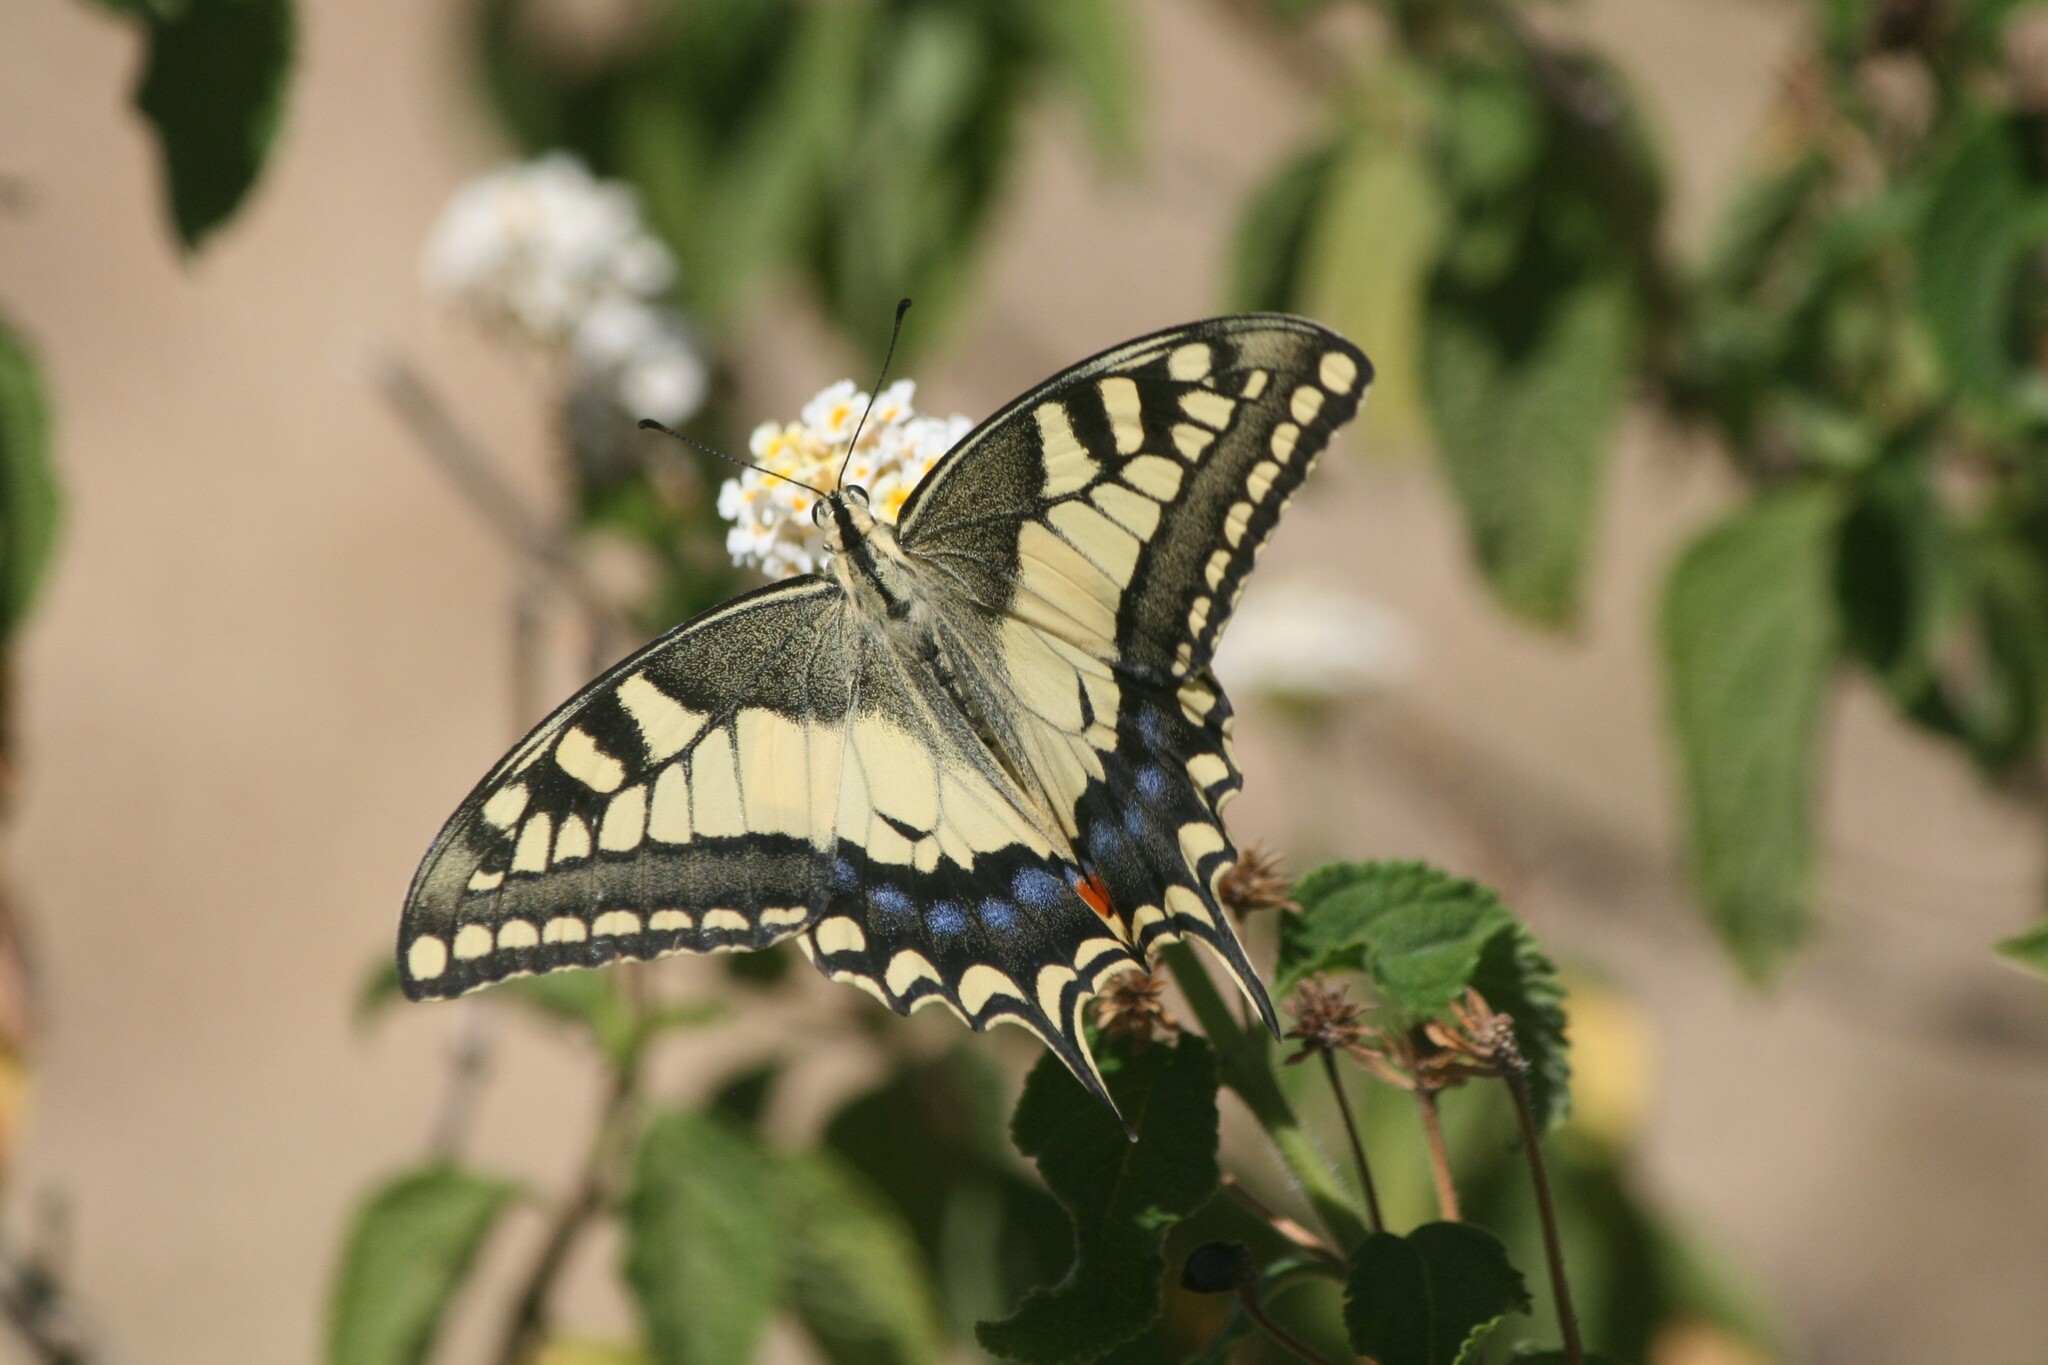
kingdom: Animalia
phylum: Arthropoda
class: Insecta
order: Lepidoptera
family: Papilionidae
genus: Papilio
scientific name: Papilio machaon
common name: Swallowtail
